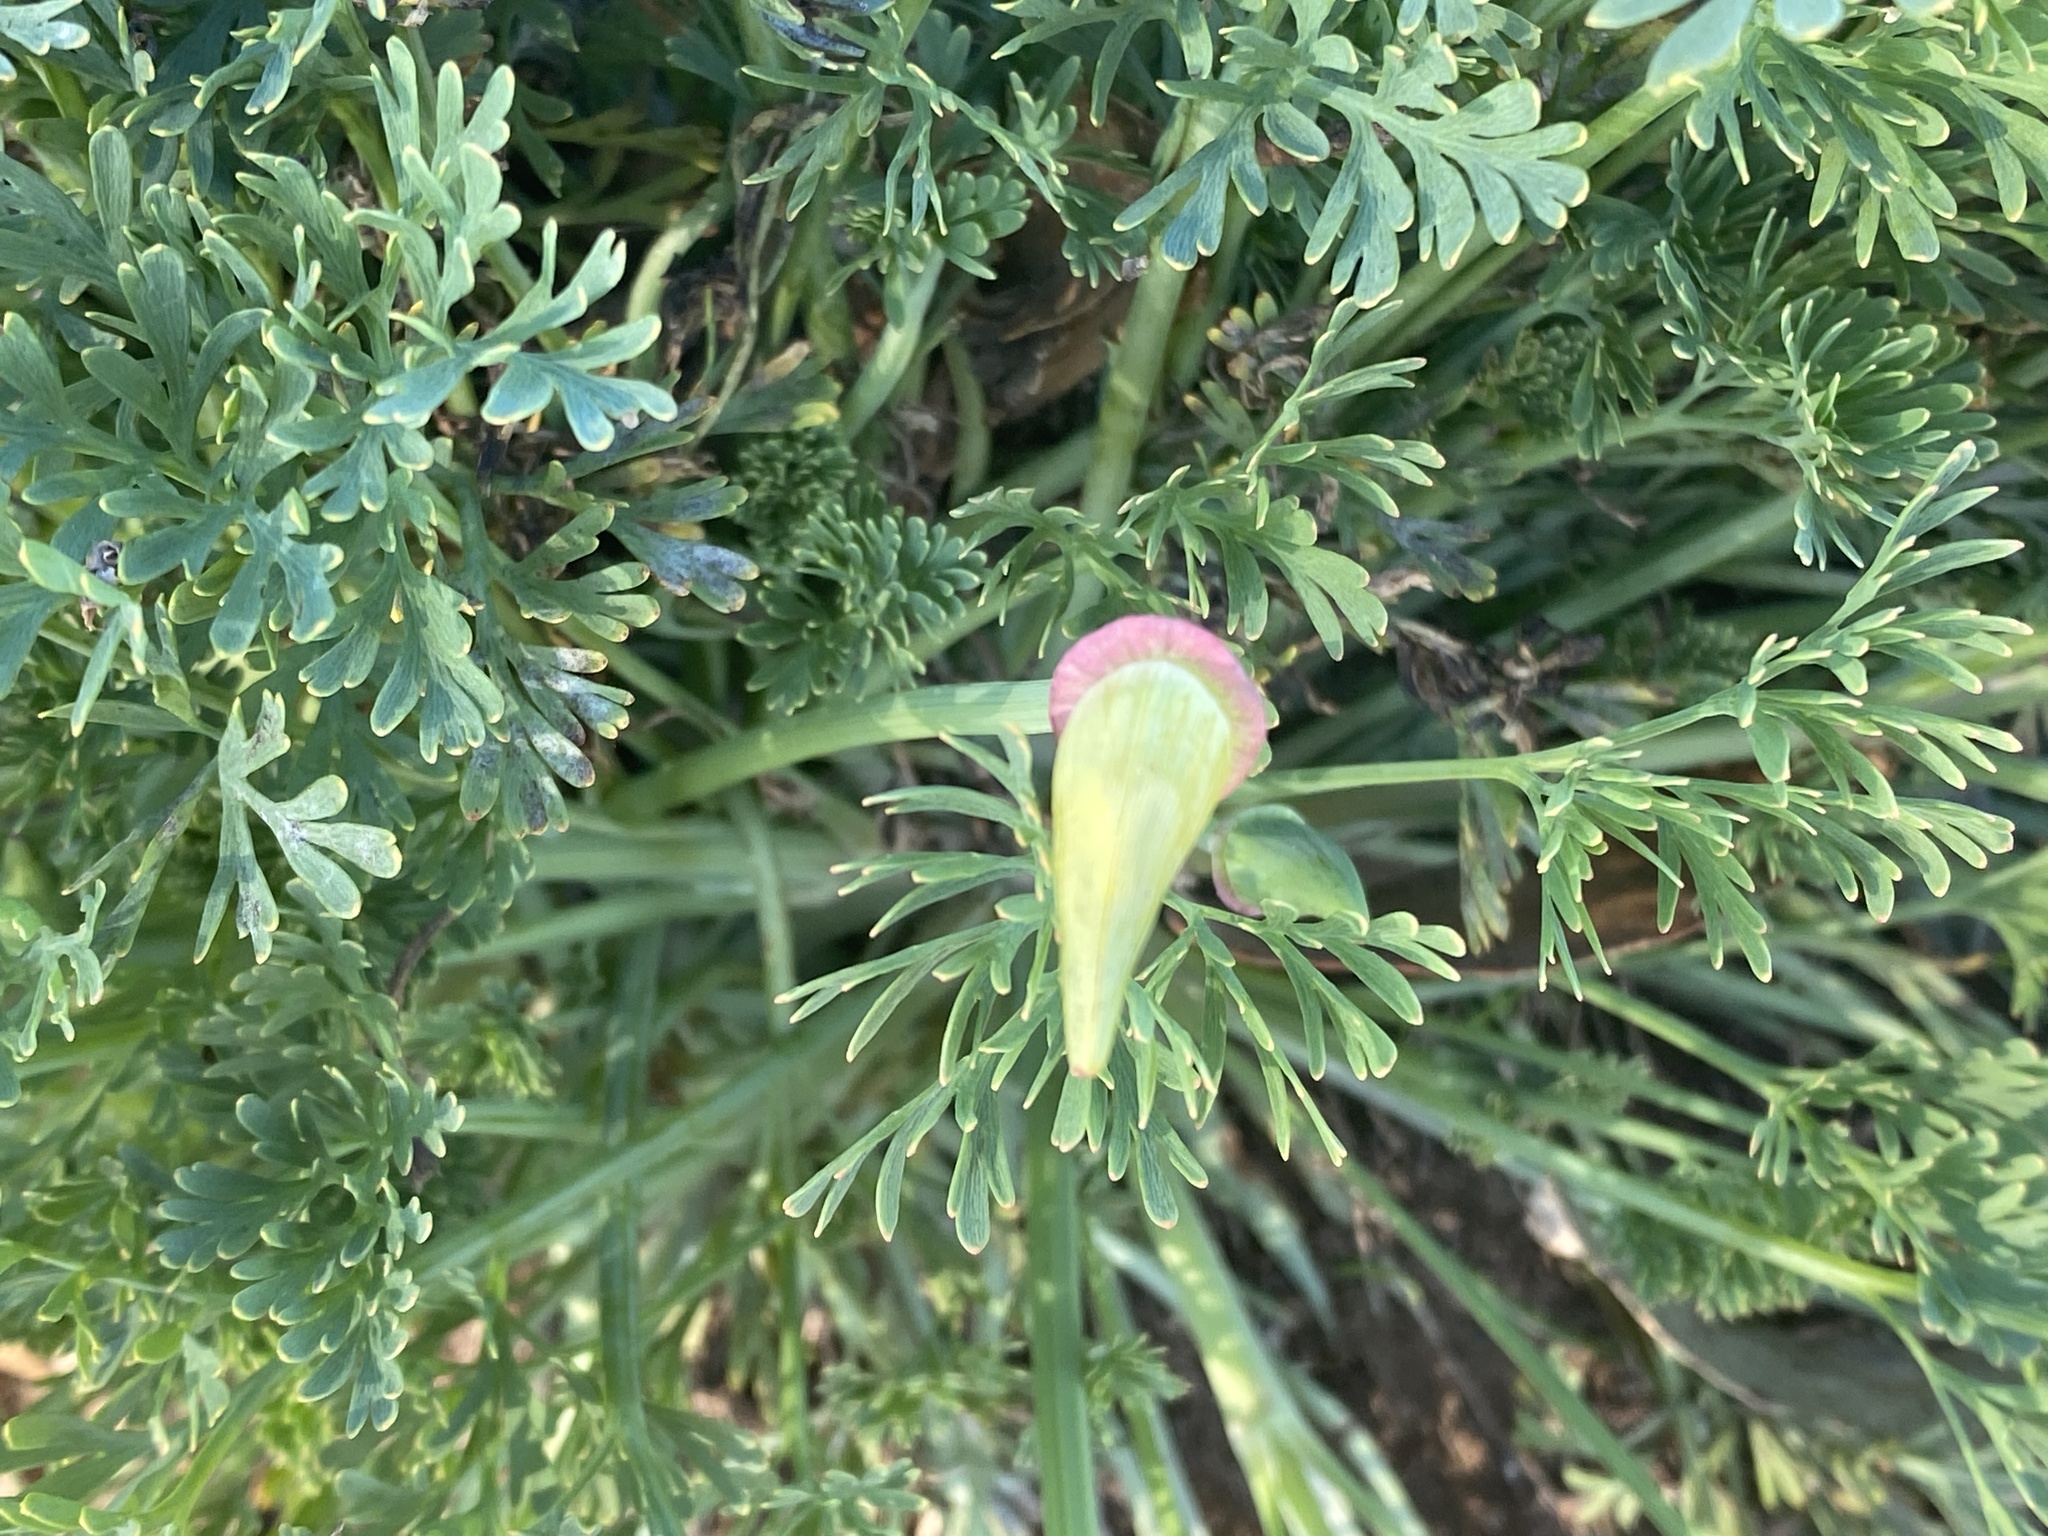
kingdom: Plantae
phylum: Tracheophyta
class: Magnoliopsida
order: Ranunculales
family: Papaveraceae
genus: Eschscholzia
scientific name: Eschscholzia californica
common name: California poppy
